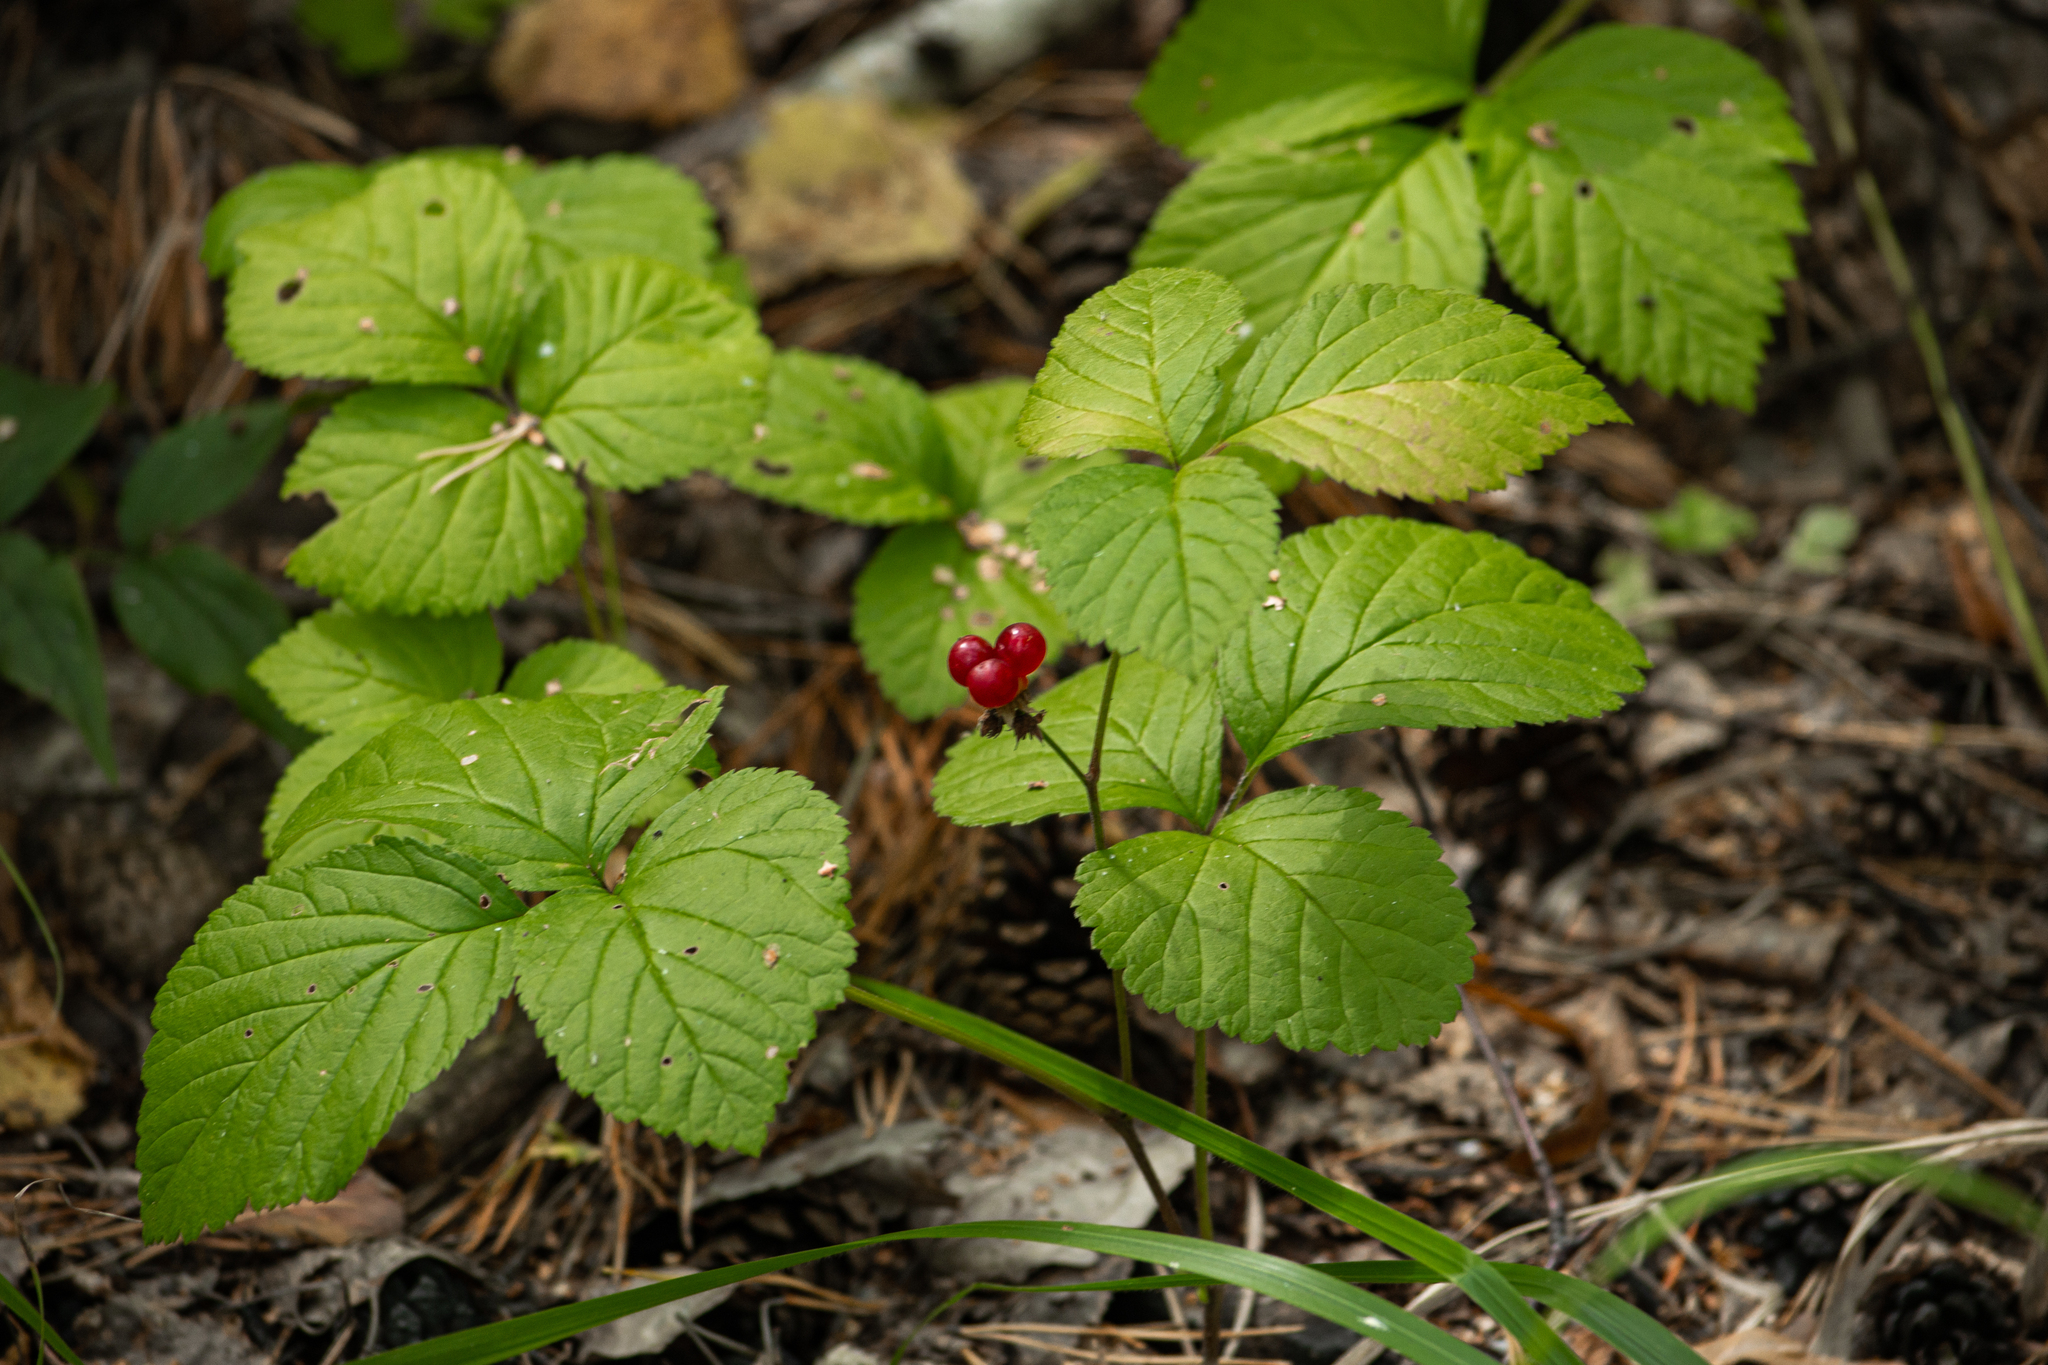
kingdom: Plantae
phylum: Tracheophyta
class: Magnoliopsida
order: Rosales
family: Rosaceae
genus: Rubus
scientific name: Rubus saxatilis
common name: Stone bramble
